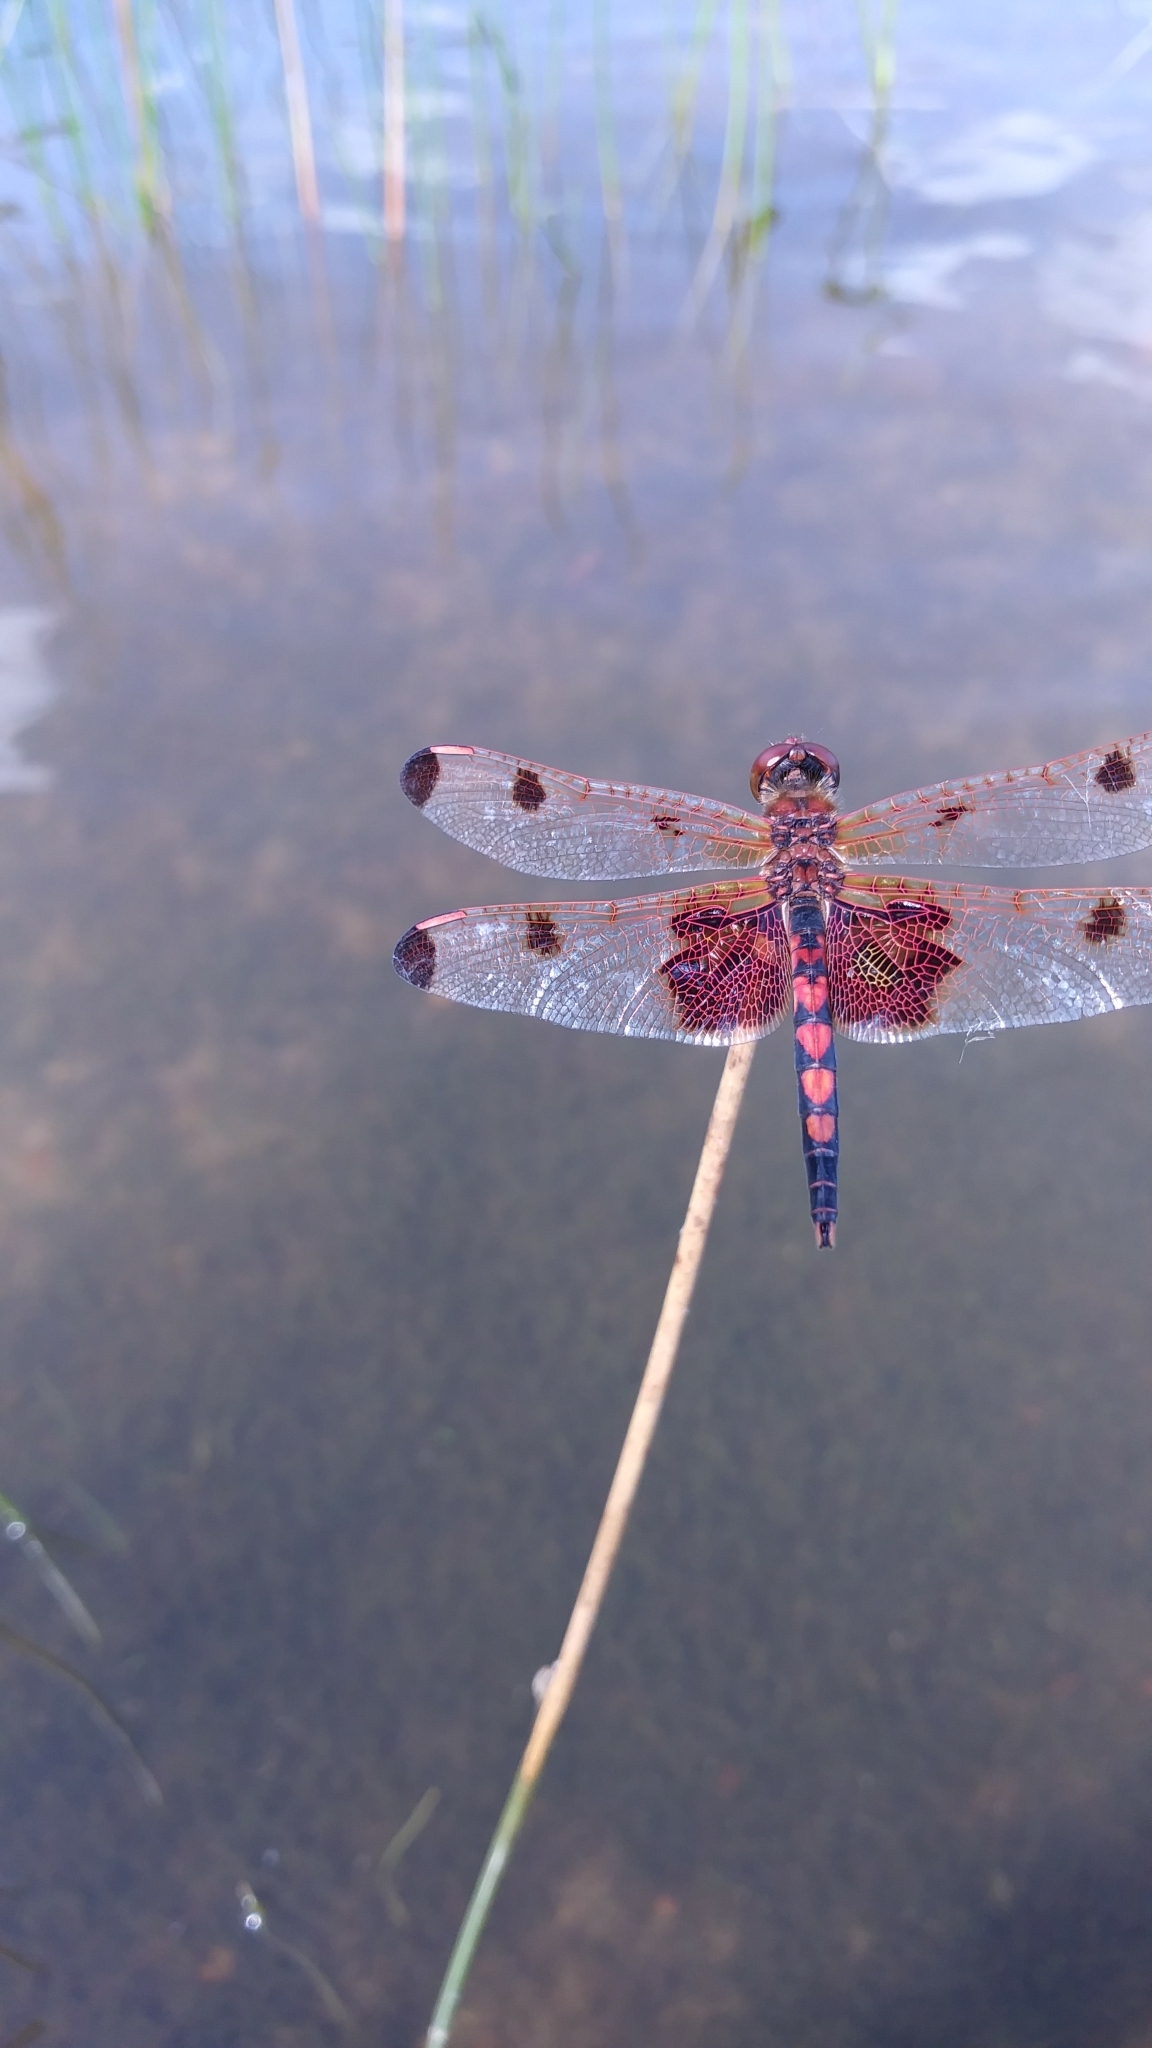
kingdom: Animalia
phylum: Arthropoda
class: Insecta
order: Odonata
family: Libellulidae
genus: Celithemis
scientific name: Celithemis elisa
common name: Calico pennant
